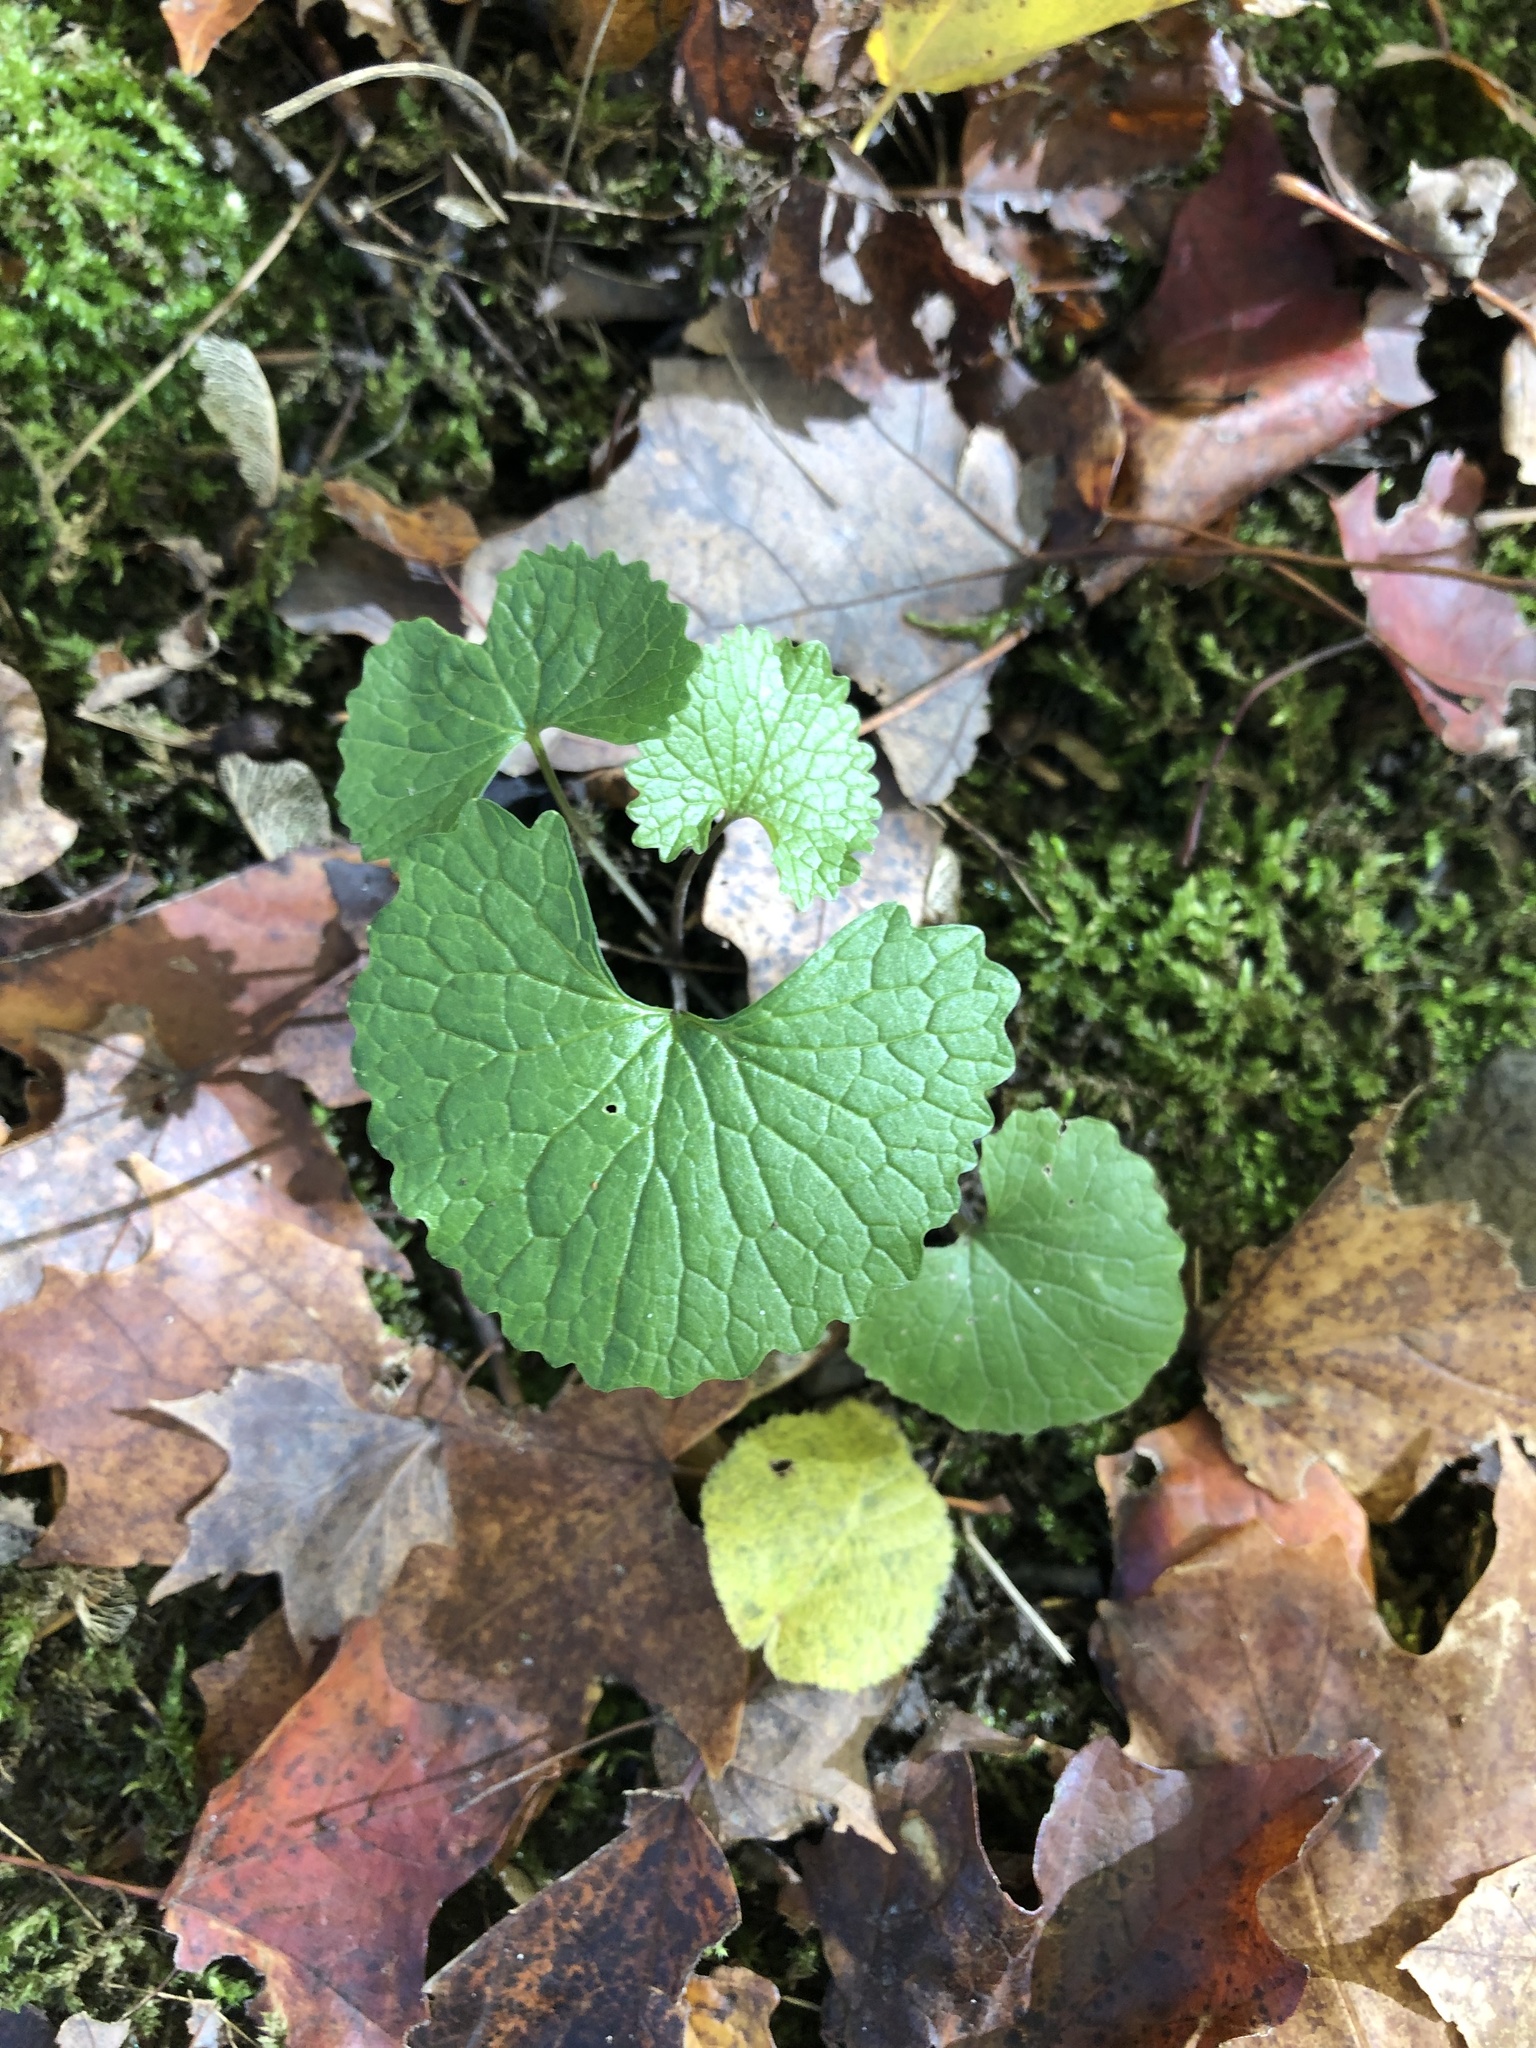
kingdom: Plantae
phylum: Tracheophyta
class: Magnoliopsida
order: Brassicales
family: Brassicaceae
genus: Alliaria
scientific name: Alliaria petiolata
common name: Garlic mustard
